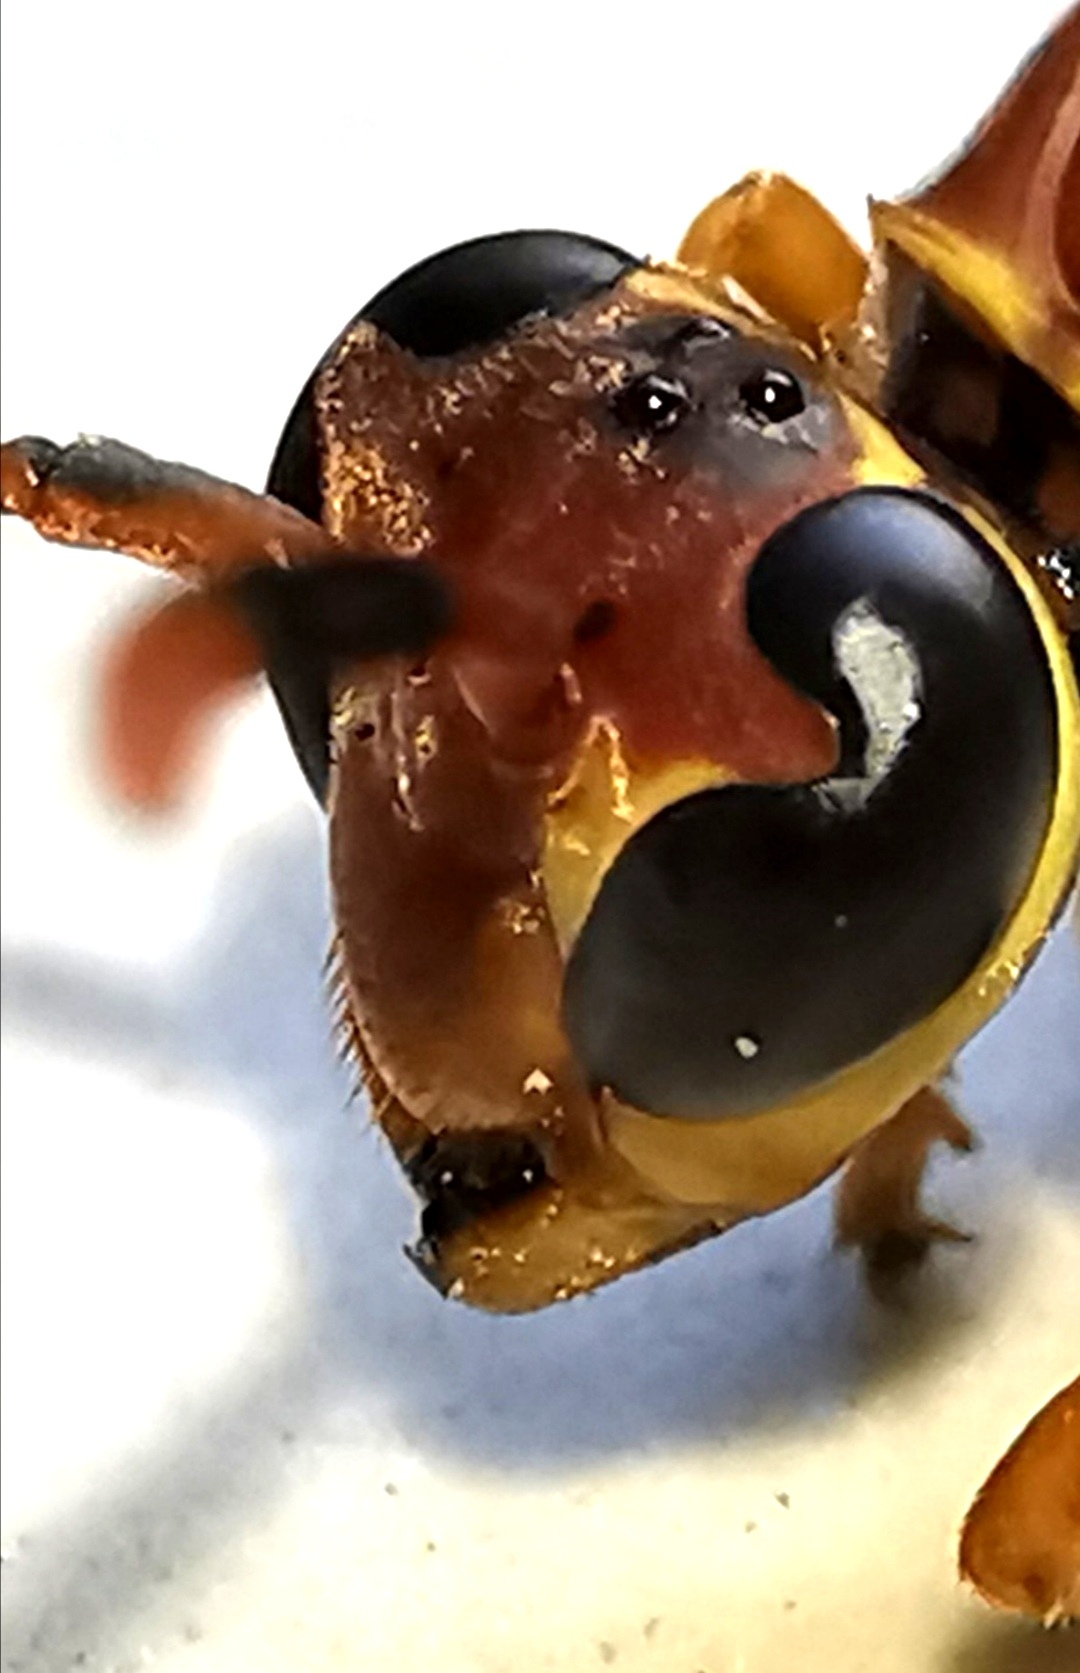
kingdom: Animalia
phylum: Arthropoda
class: Insecta
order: Hymenoptera
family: Eumenidae
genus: Polistes
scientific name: Polistes instabilis
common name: Unstable paper wasp
